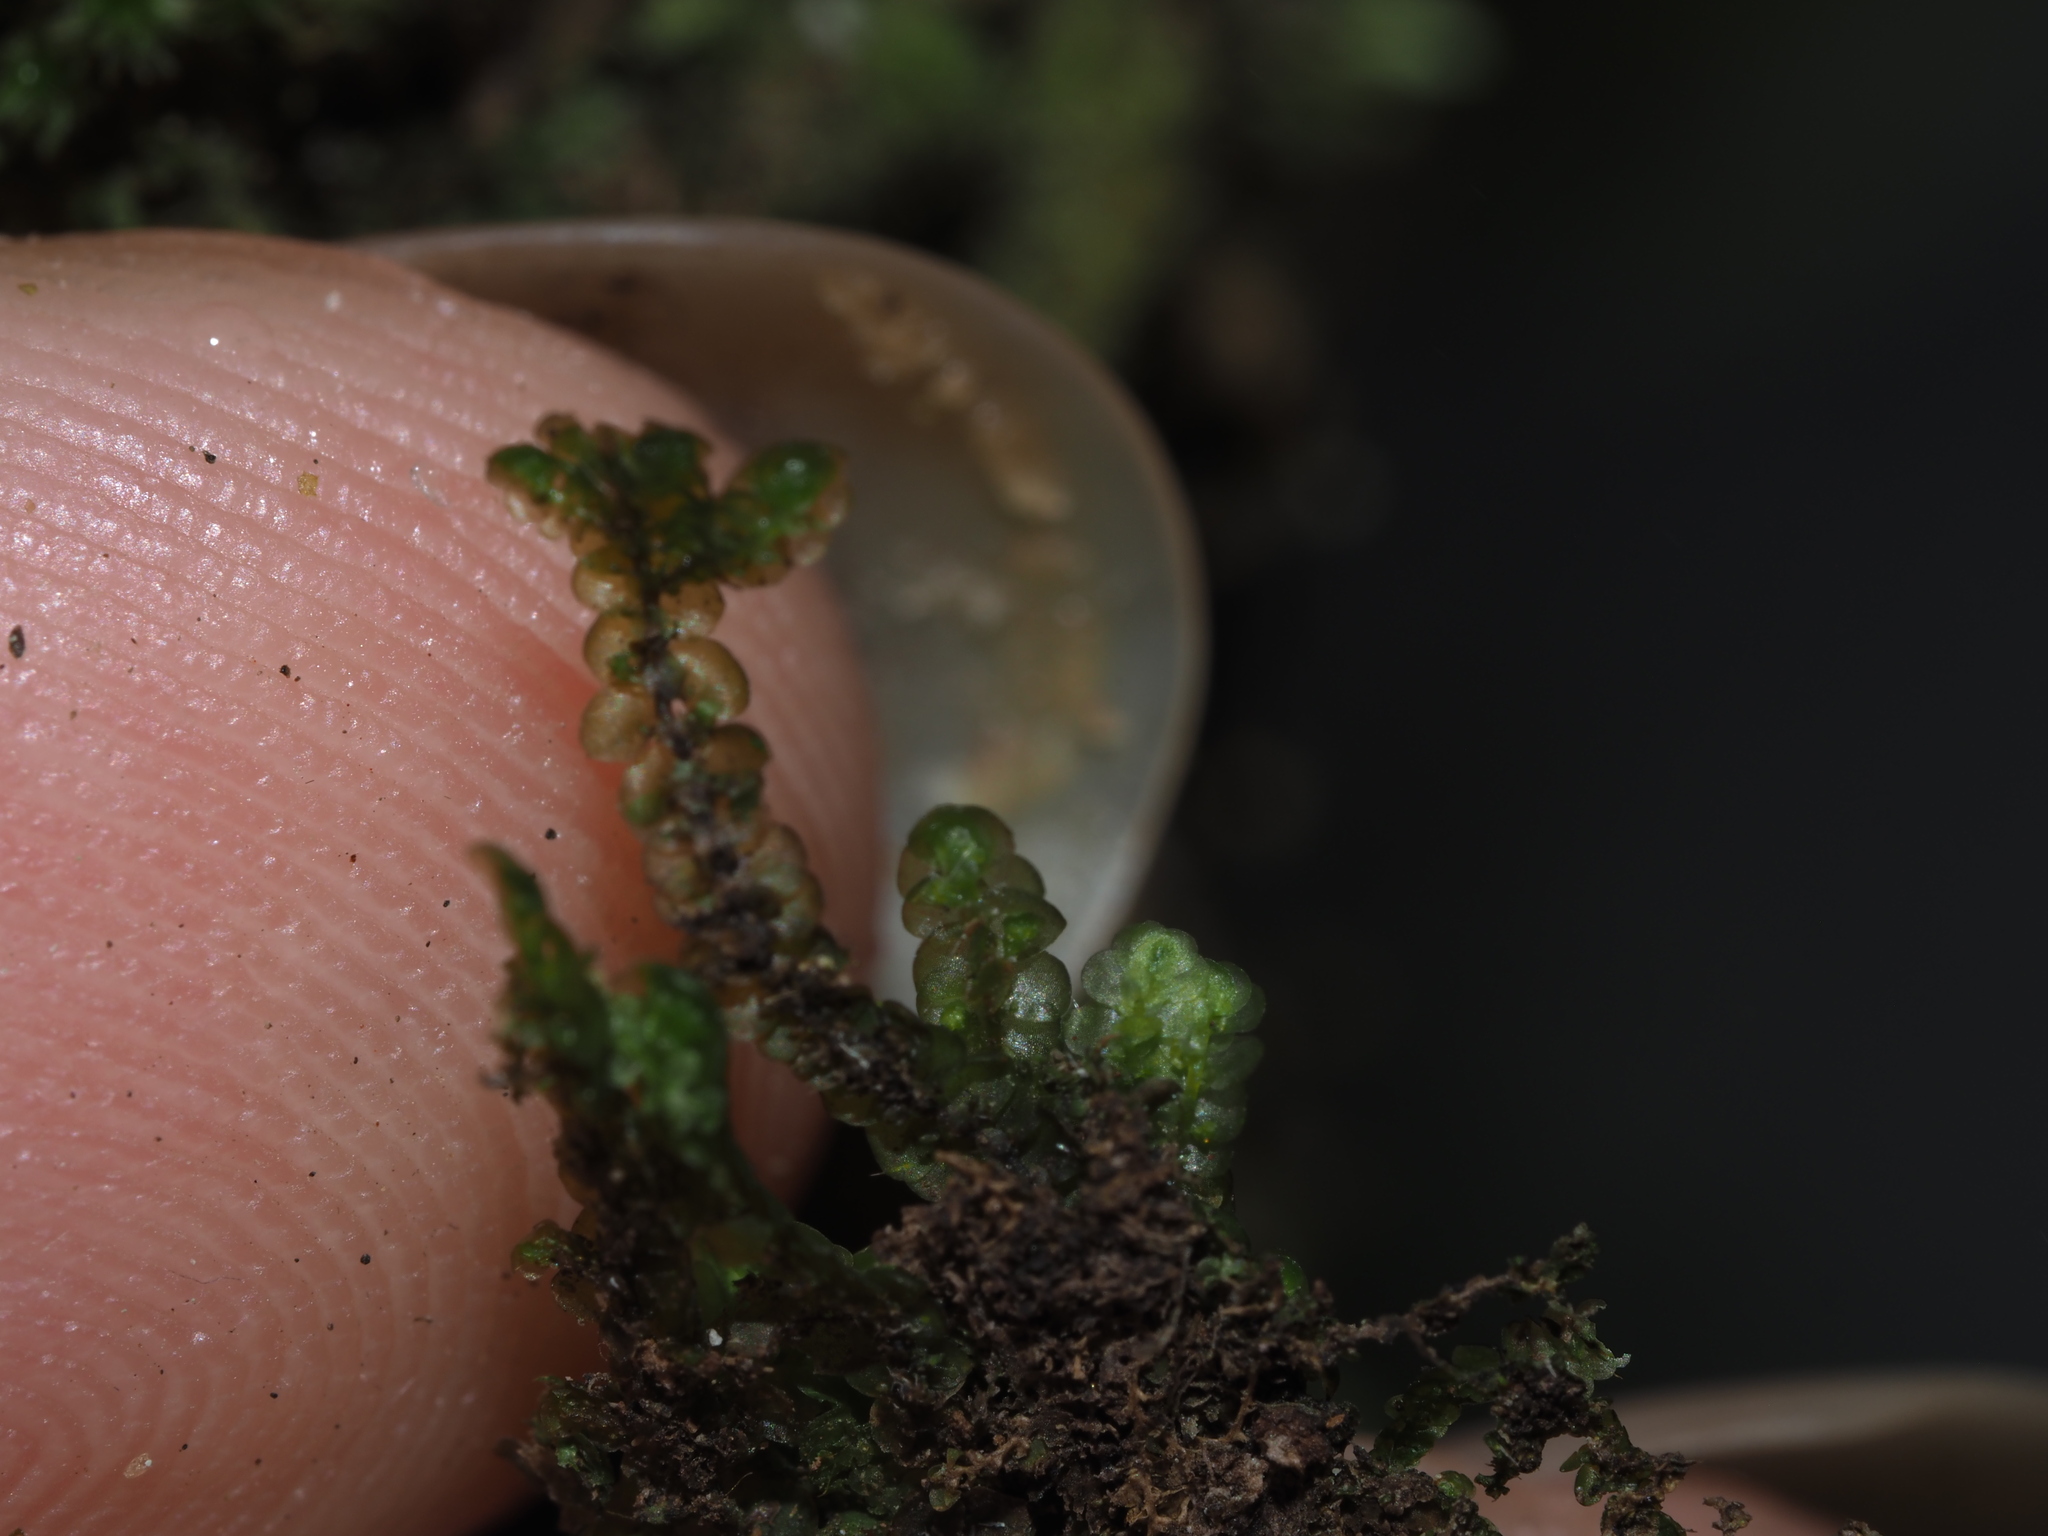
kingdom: Plantae
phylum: Marchantiophyta
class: Jungermanniopsida
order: Porellales
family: Frullaniaceae
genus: Frullania
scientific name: Frullania hypoleuca
